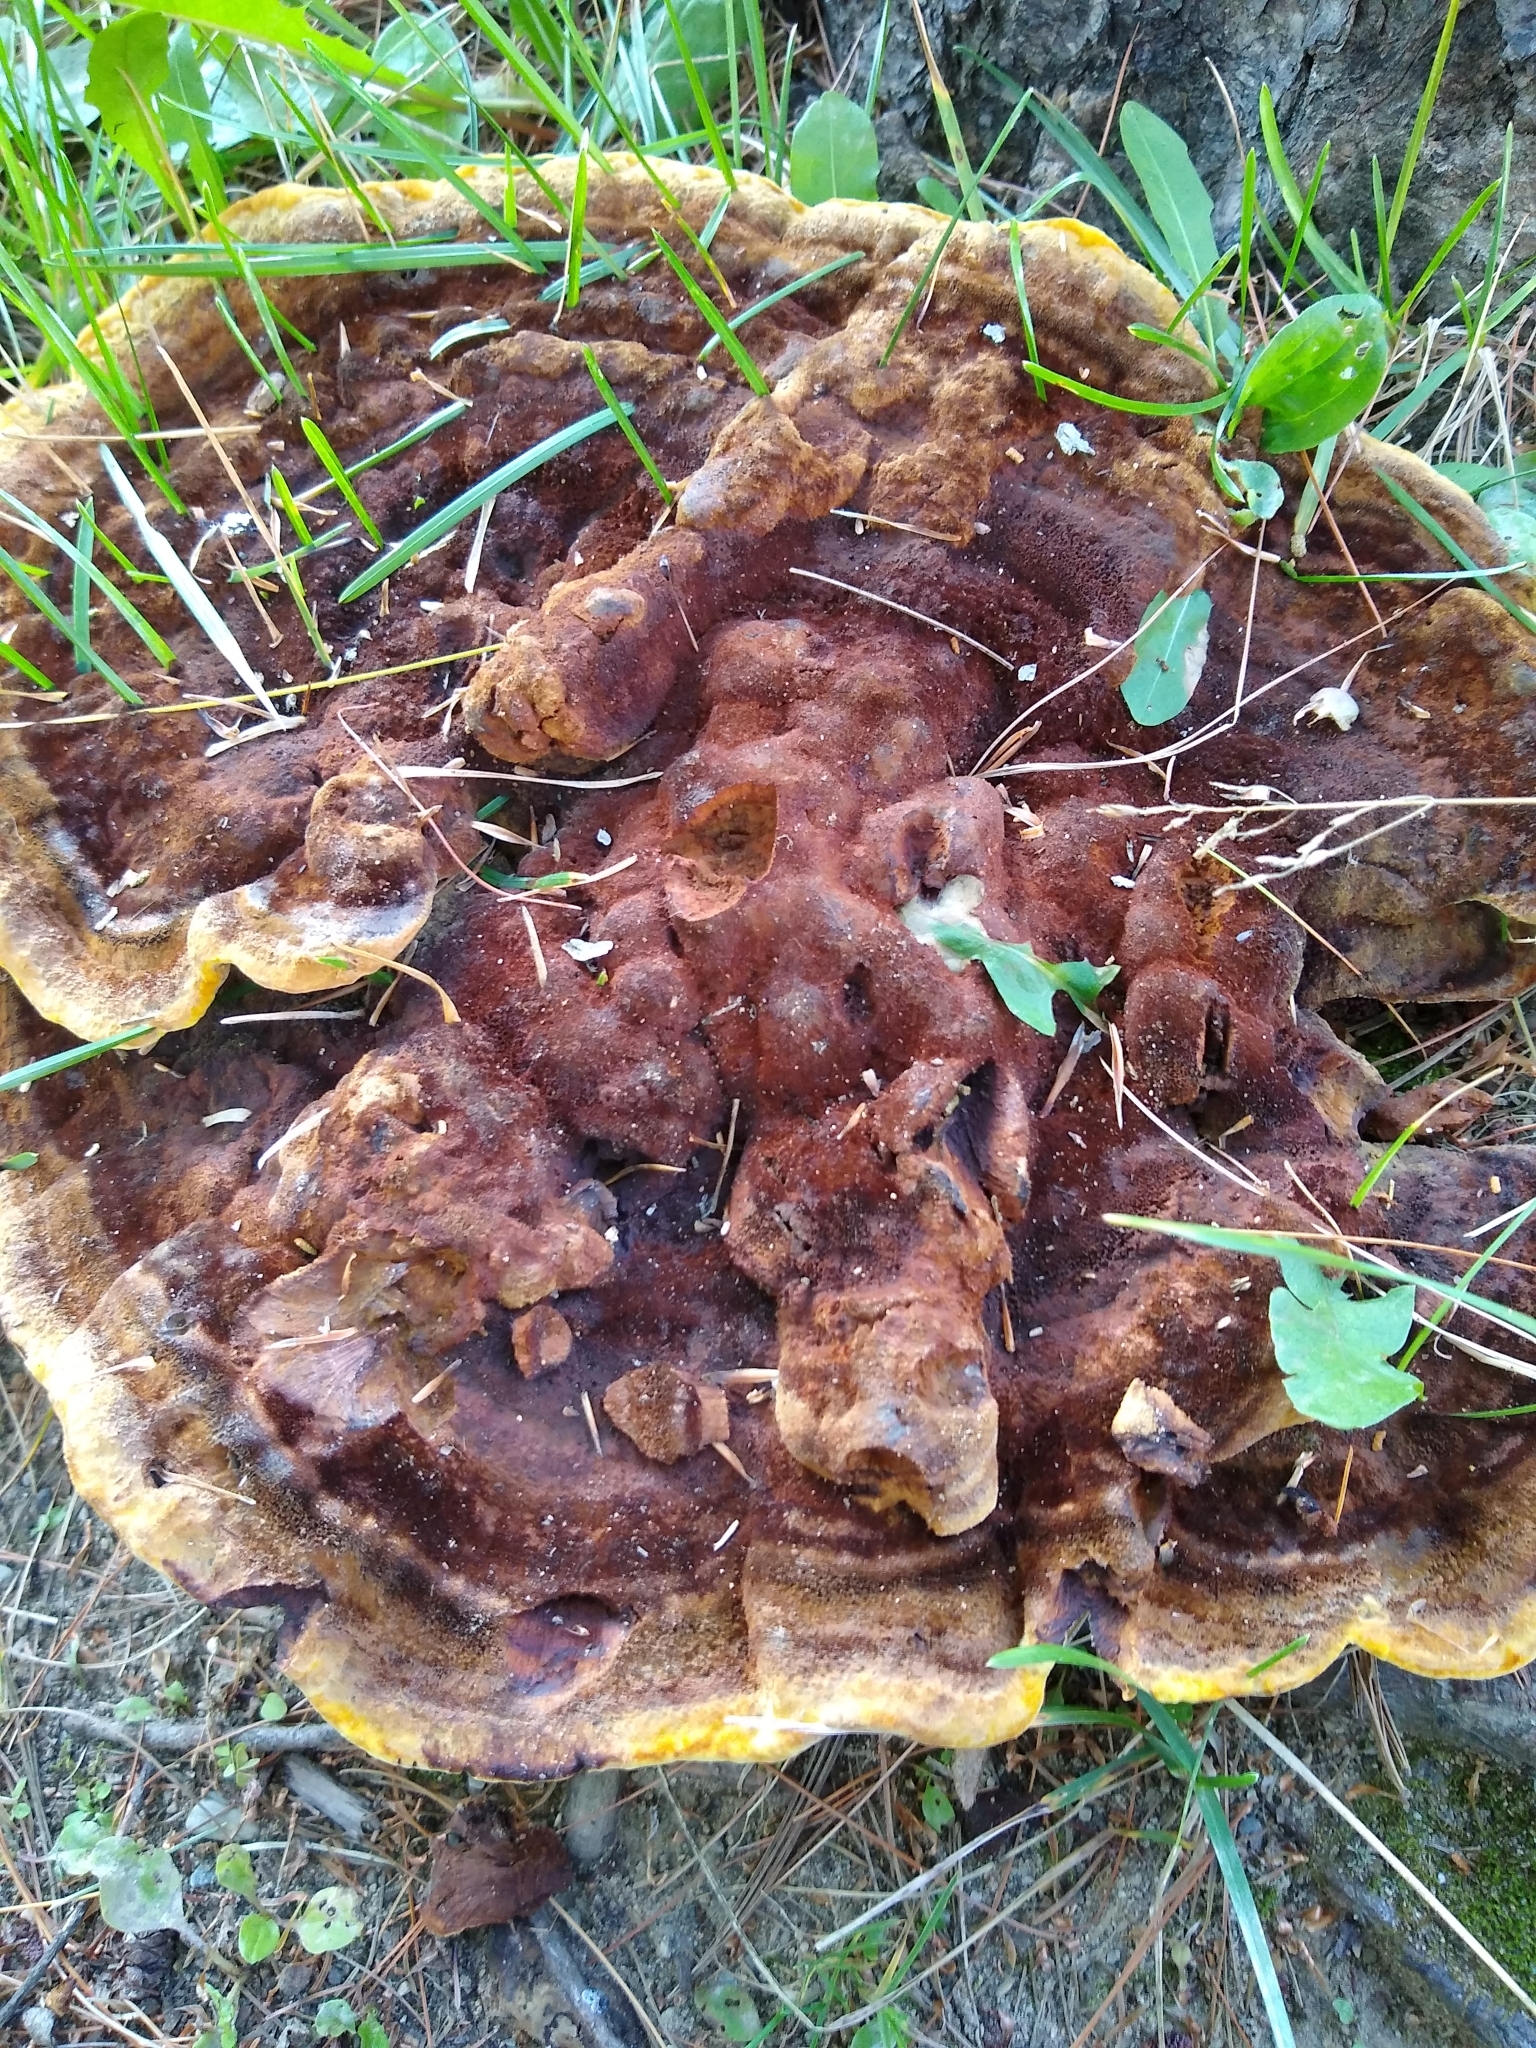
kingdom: Fungi
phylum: Basidiomycota
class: Agaricomycetes
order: Polyporales
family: Laetiporaceae
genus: Phaeolus
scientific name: Phaeolus schweinitzii
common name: Dyer's mazegill
